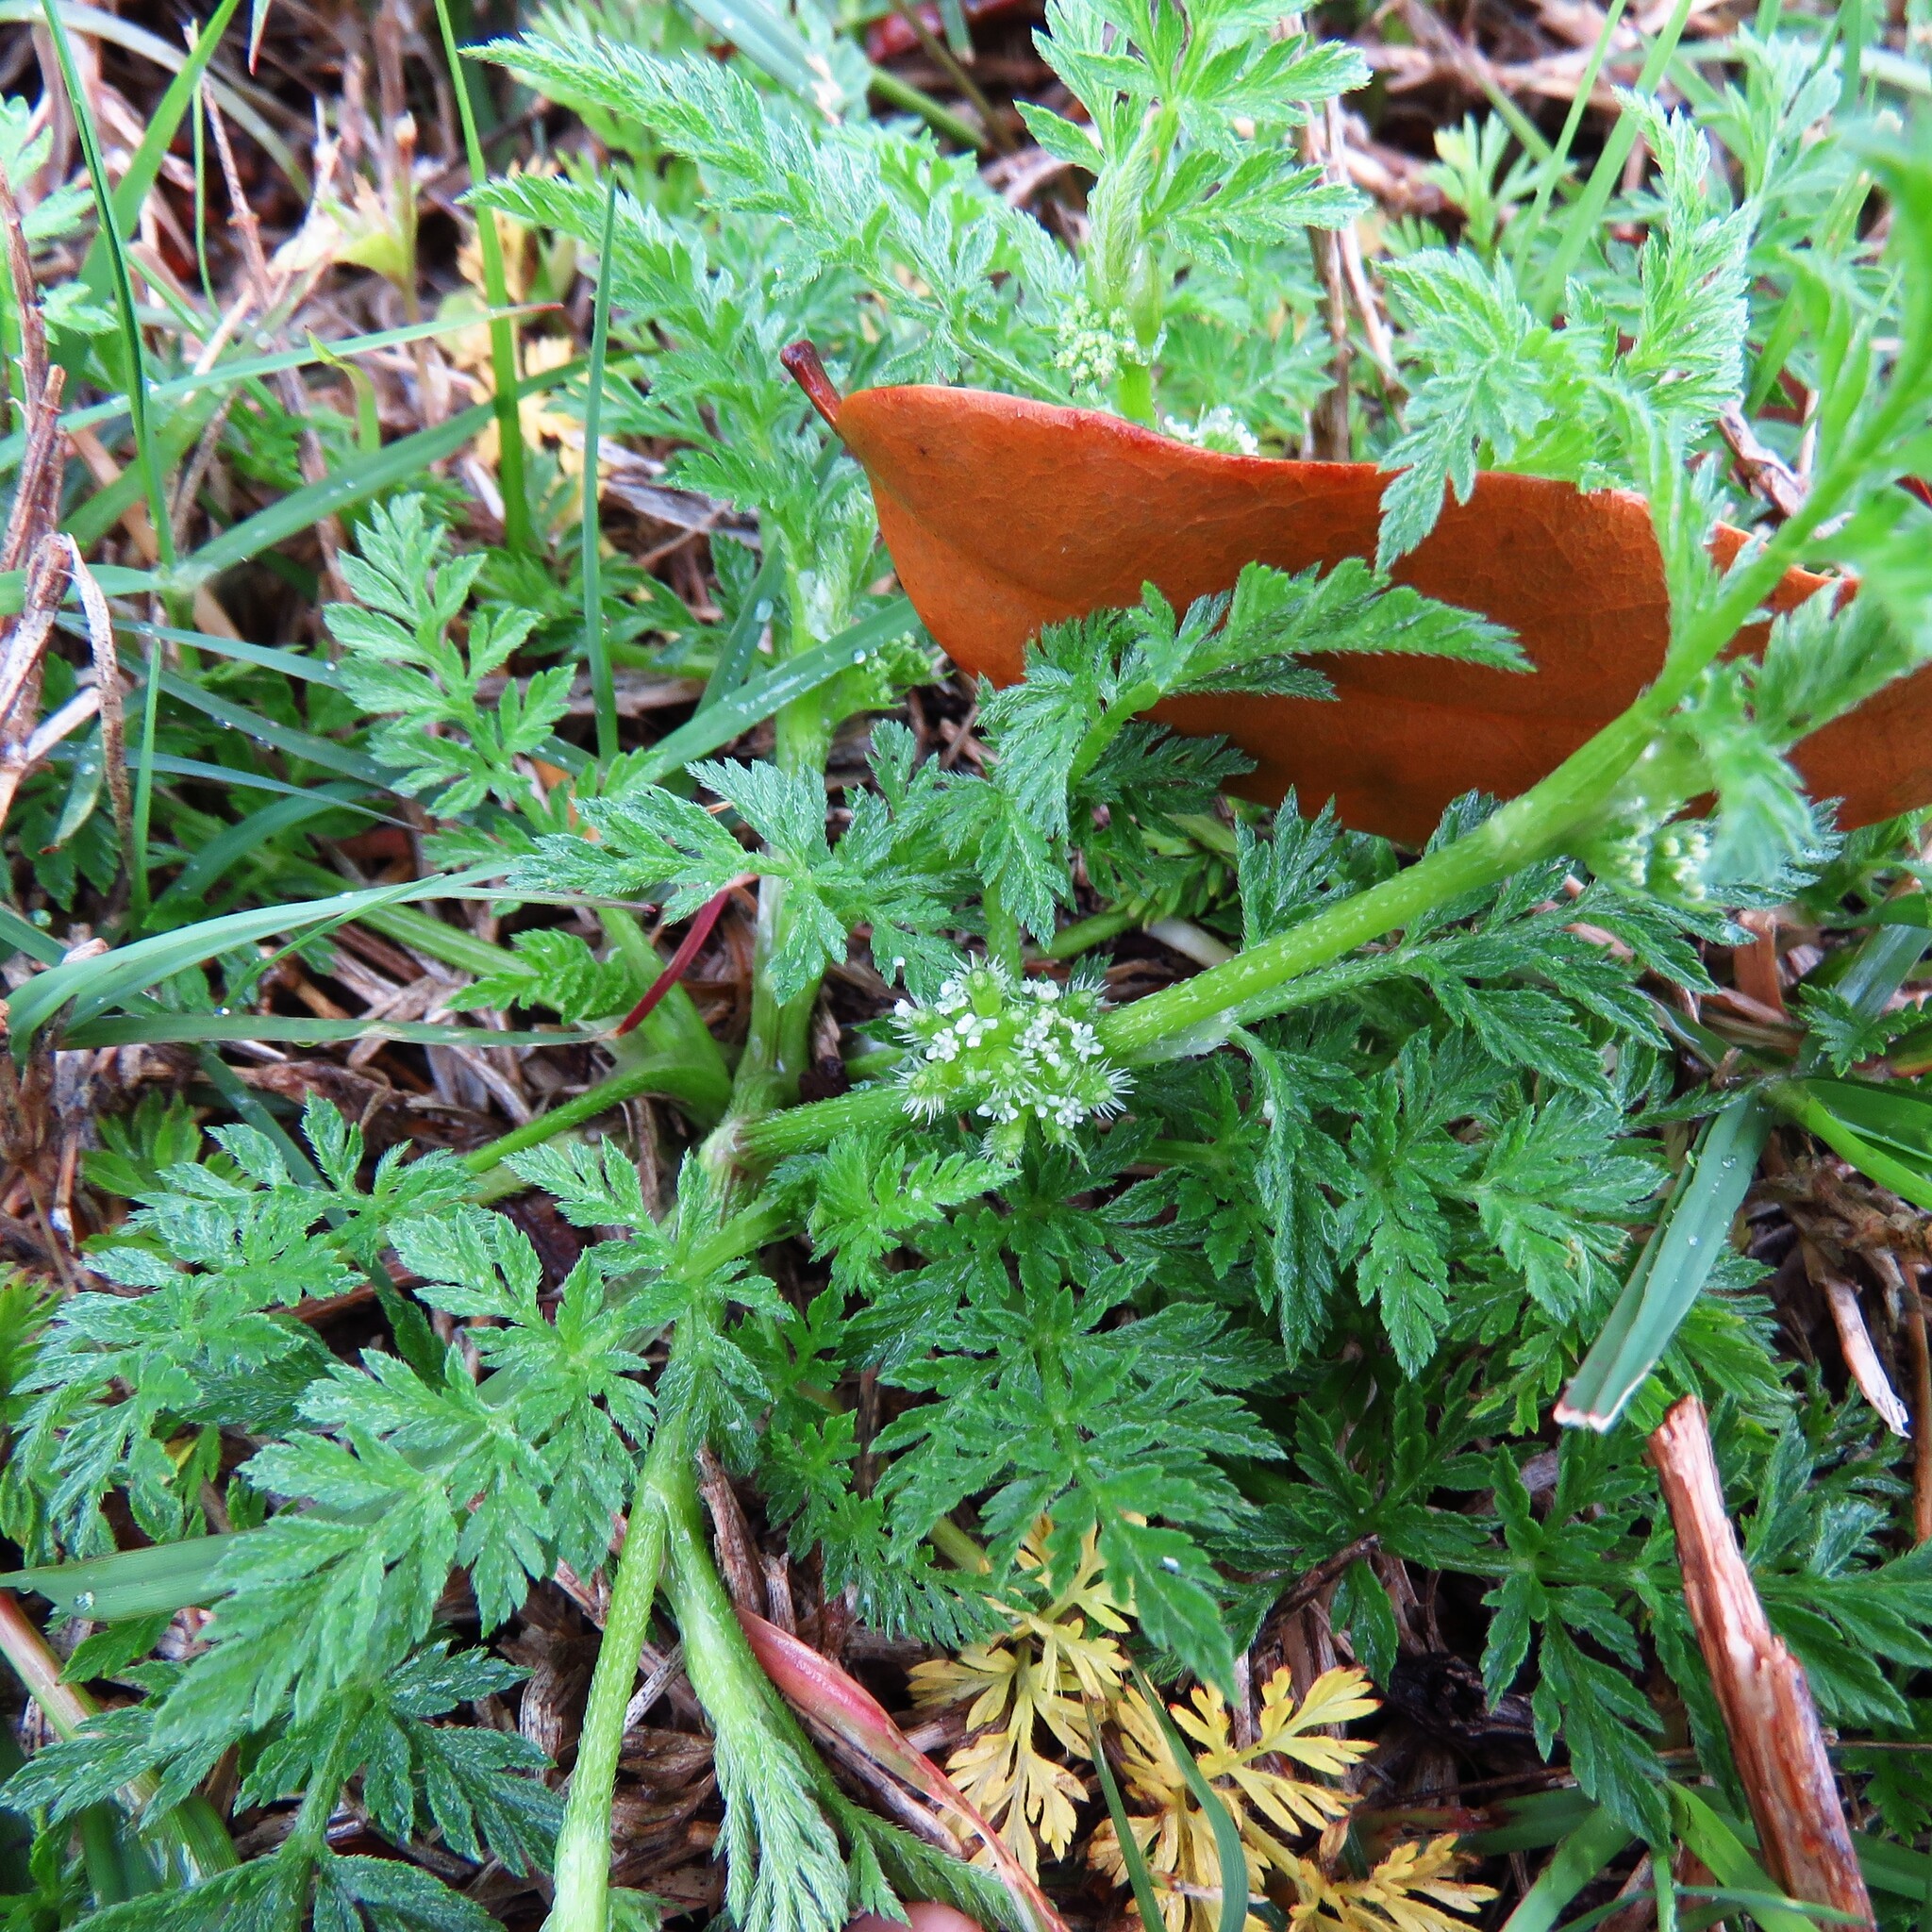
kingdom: Plantae
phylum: Tracheophyta
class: Magnoliopsida
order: Apiales
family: Apiaceae
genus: Torilis
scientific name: Torilis nodosa
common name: Knotted hedge-parsley
